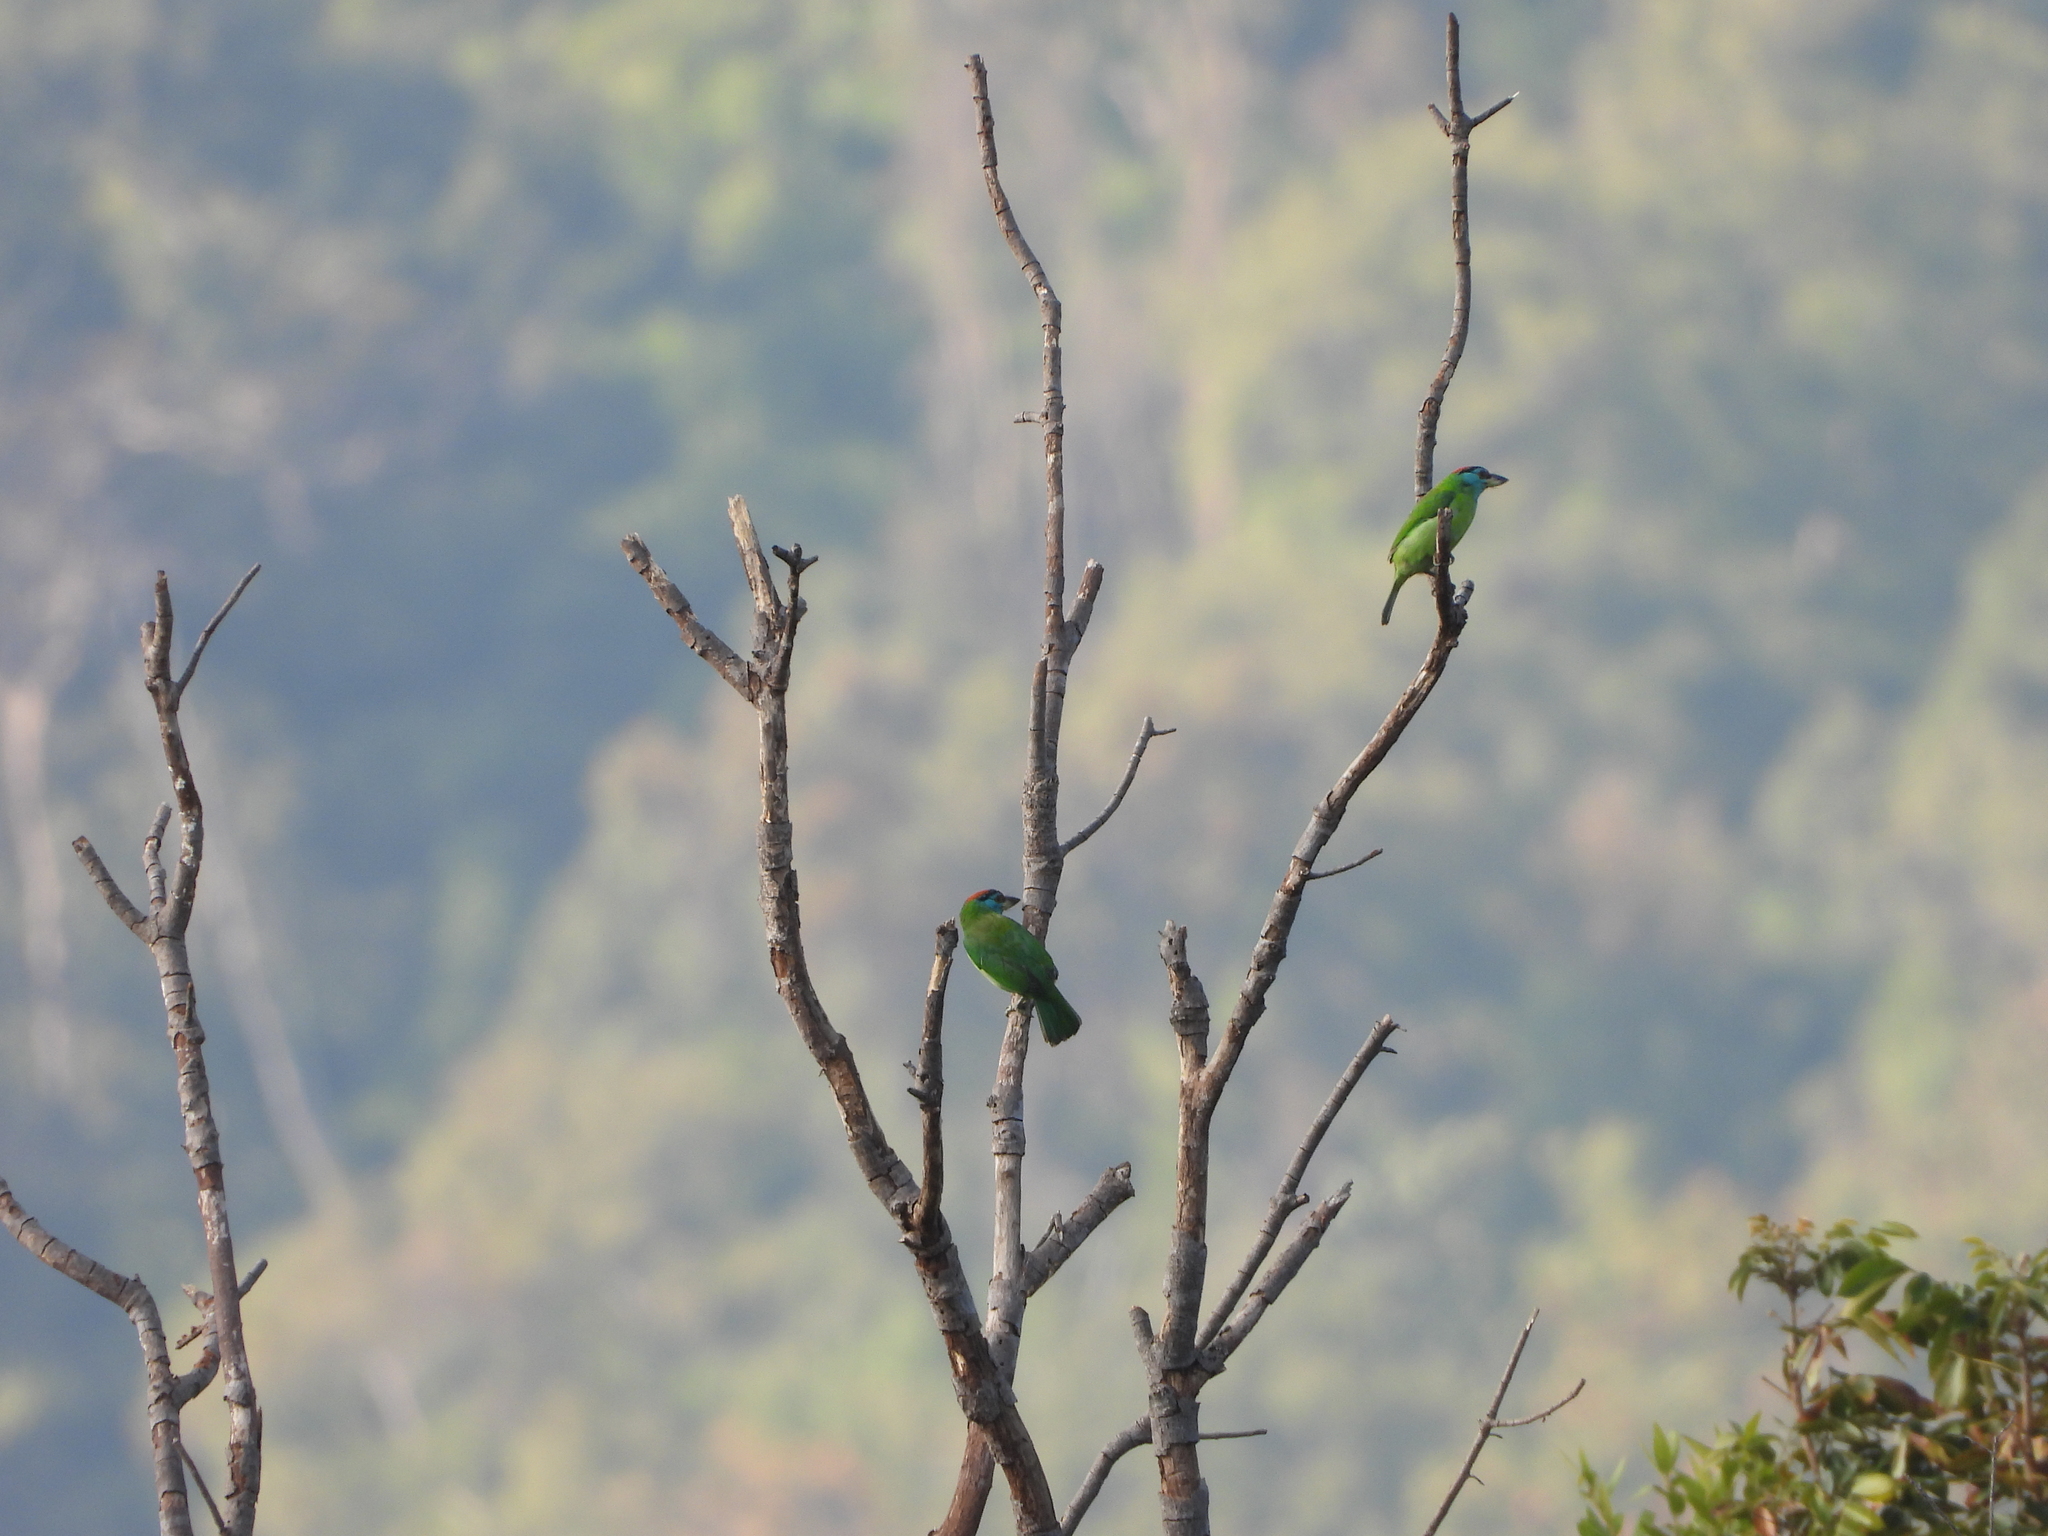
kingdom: Animalia
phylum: Chordata
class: Aves
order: Piciformes
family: Megalaimidae
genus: Psilopogon
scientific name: Psilopogon asiaticus
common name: Blue-throated barbet
